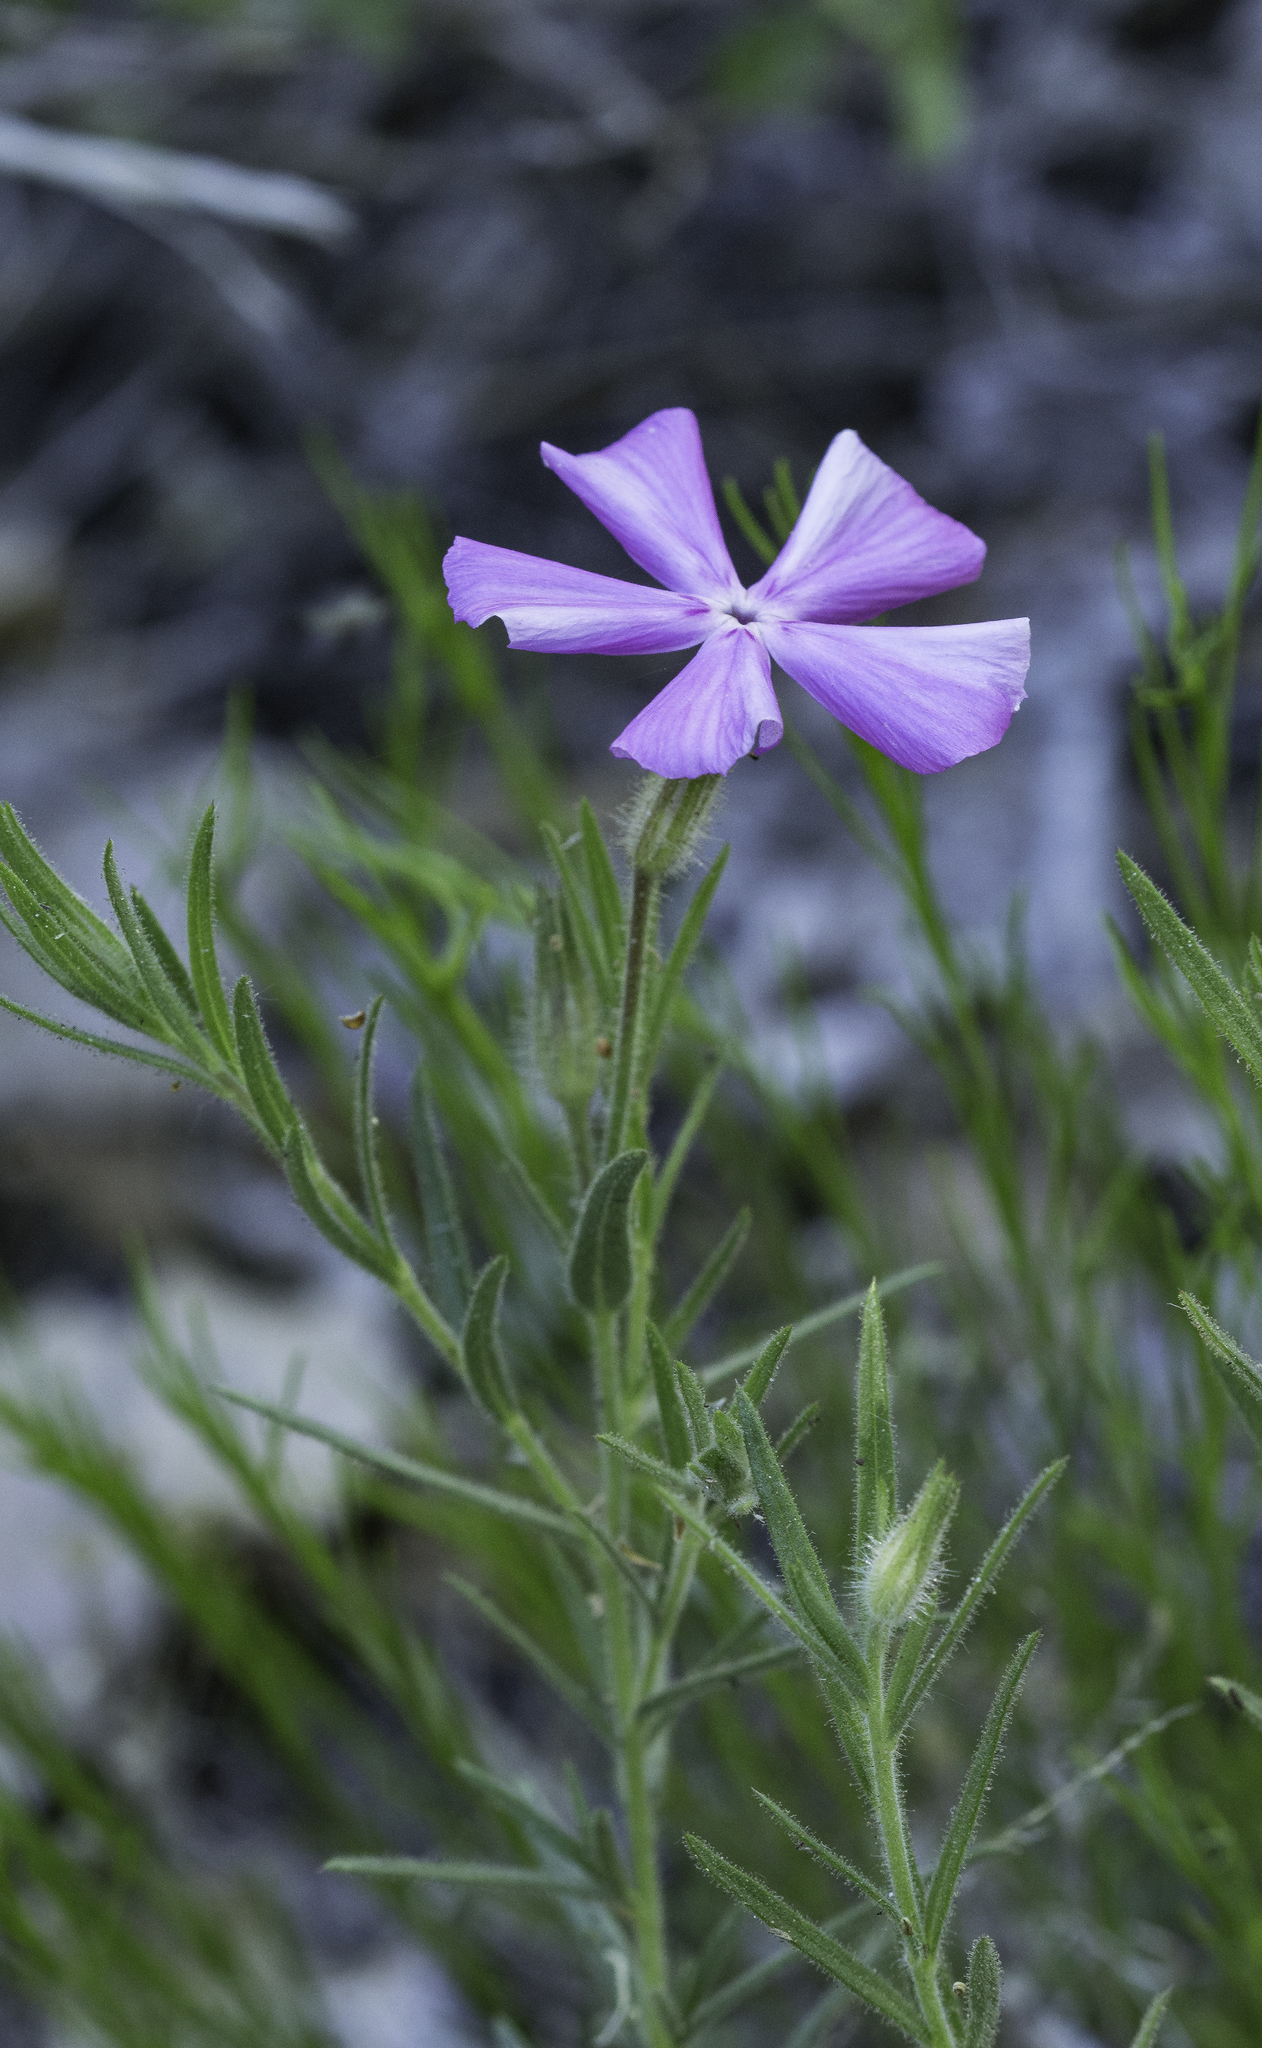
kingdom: Plantae
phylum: Tracheophyta
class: Magnoliopsida
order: Ericales
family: Polemoniaceae
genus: Phlox
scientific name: Phlox nana
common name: Santa fe phlox
